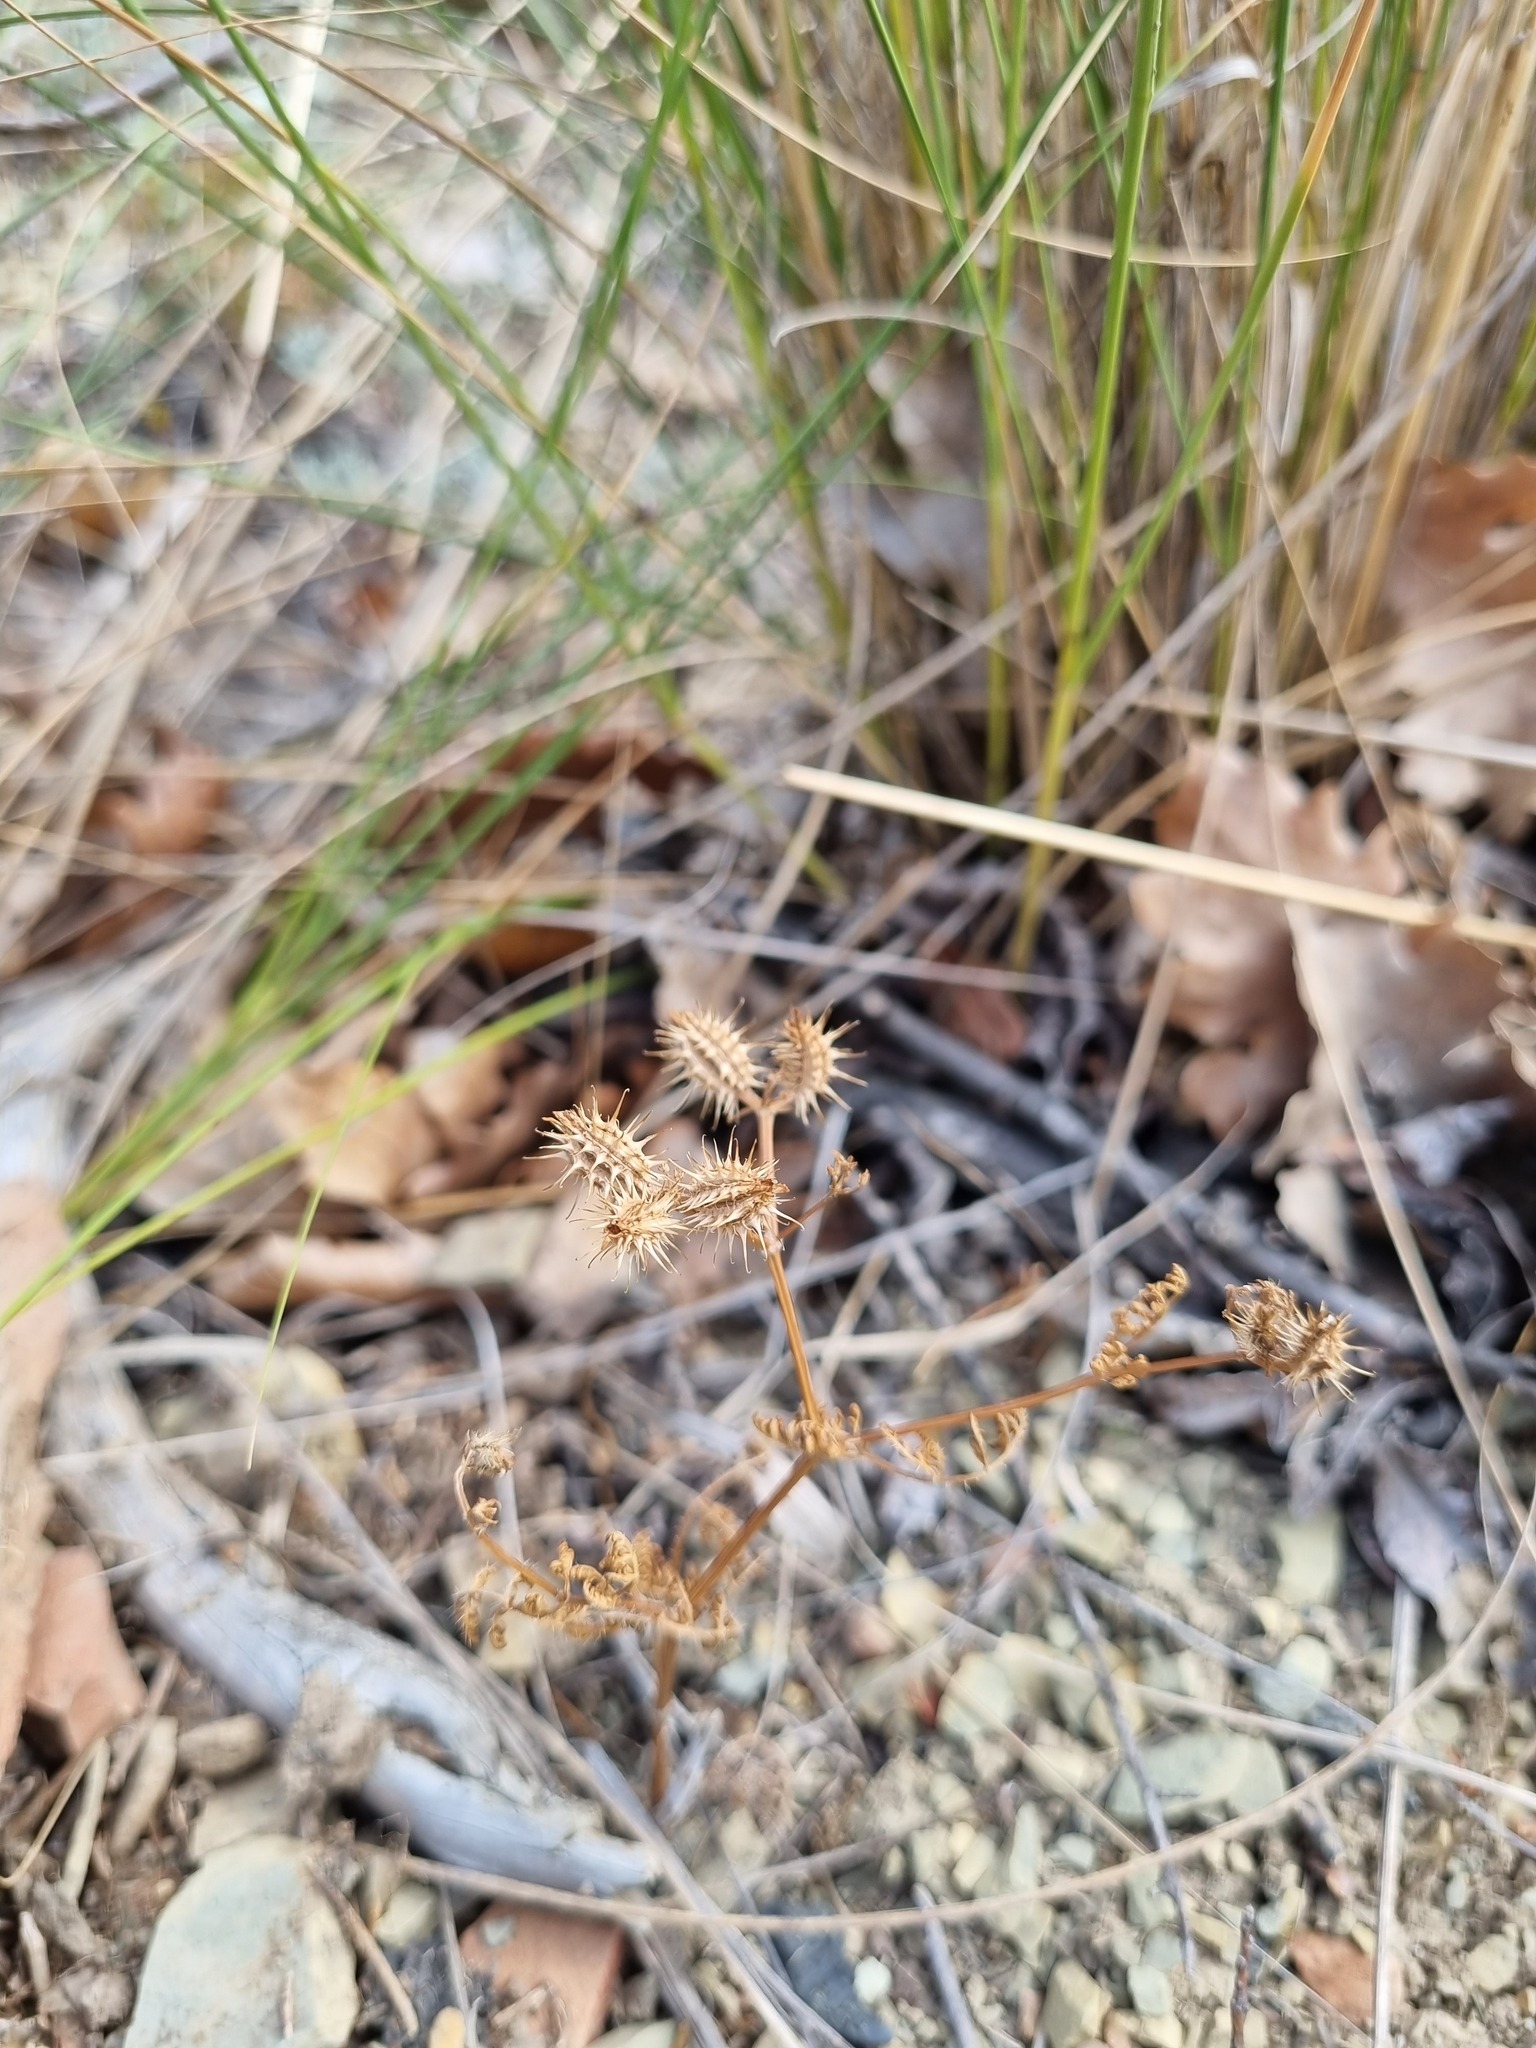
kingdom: Plantae
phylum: Tracheophyta
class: Magnoliopsida
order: Apiales
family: Apiaceae
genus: Orlaya
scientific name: Orlaya daucoides
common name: Flat-fruit orlaya
